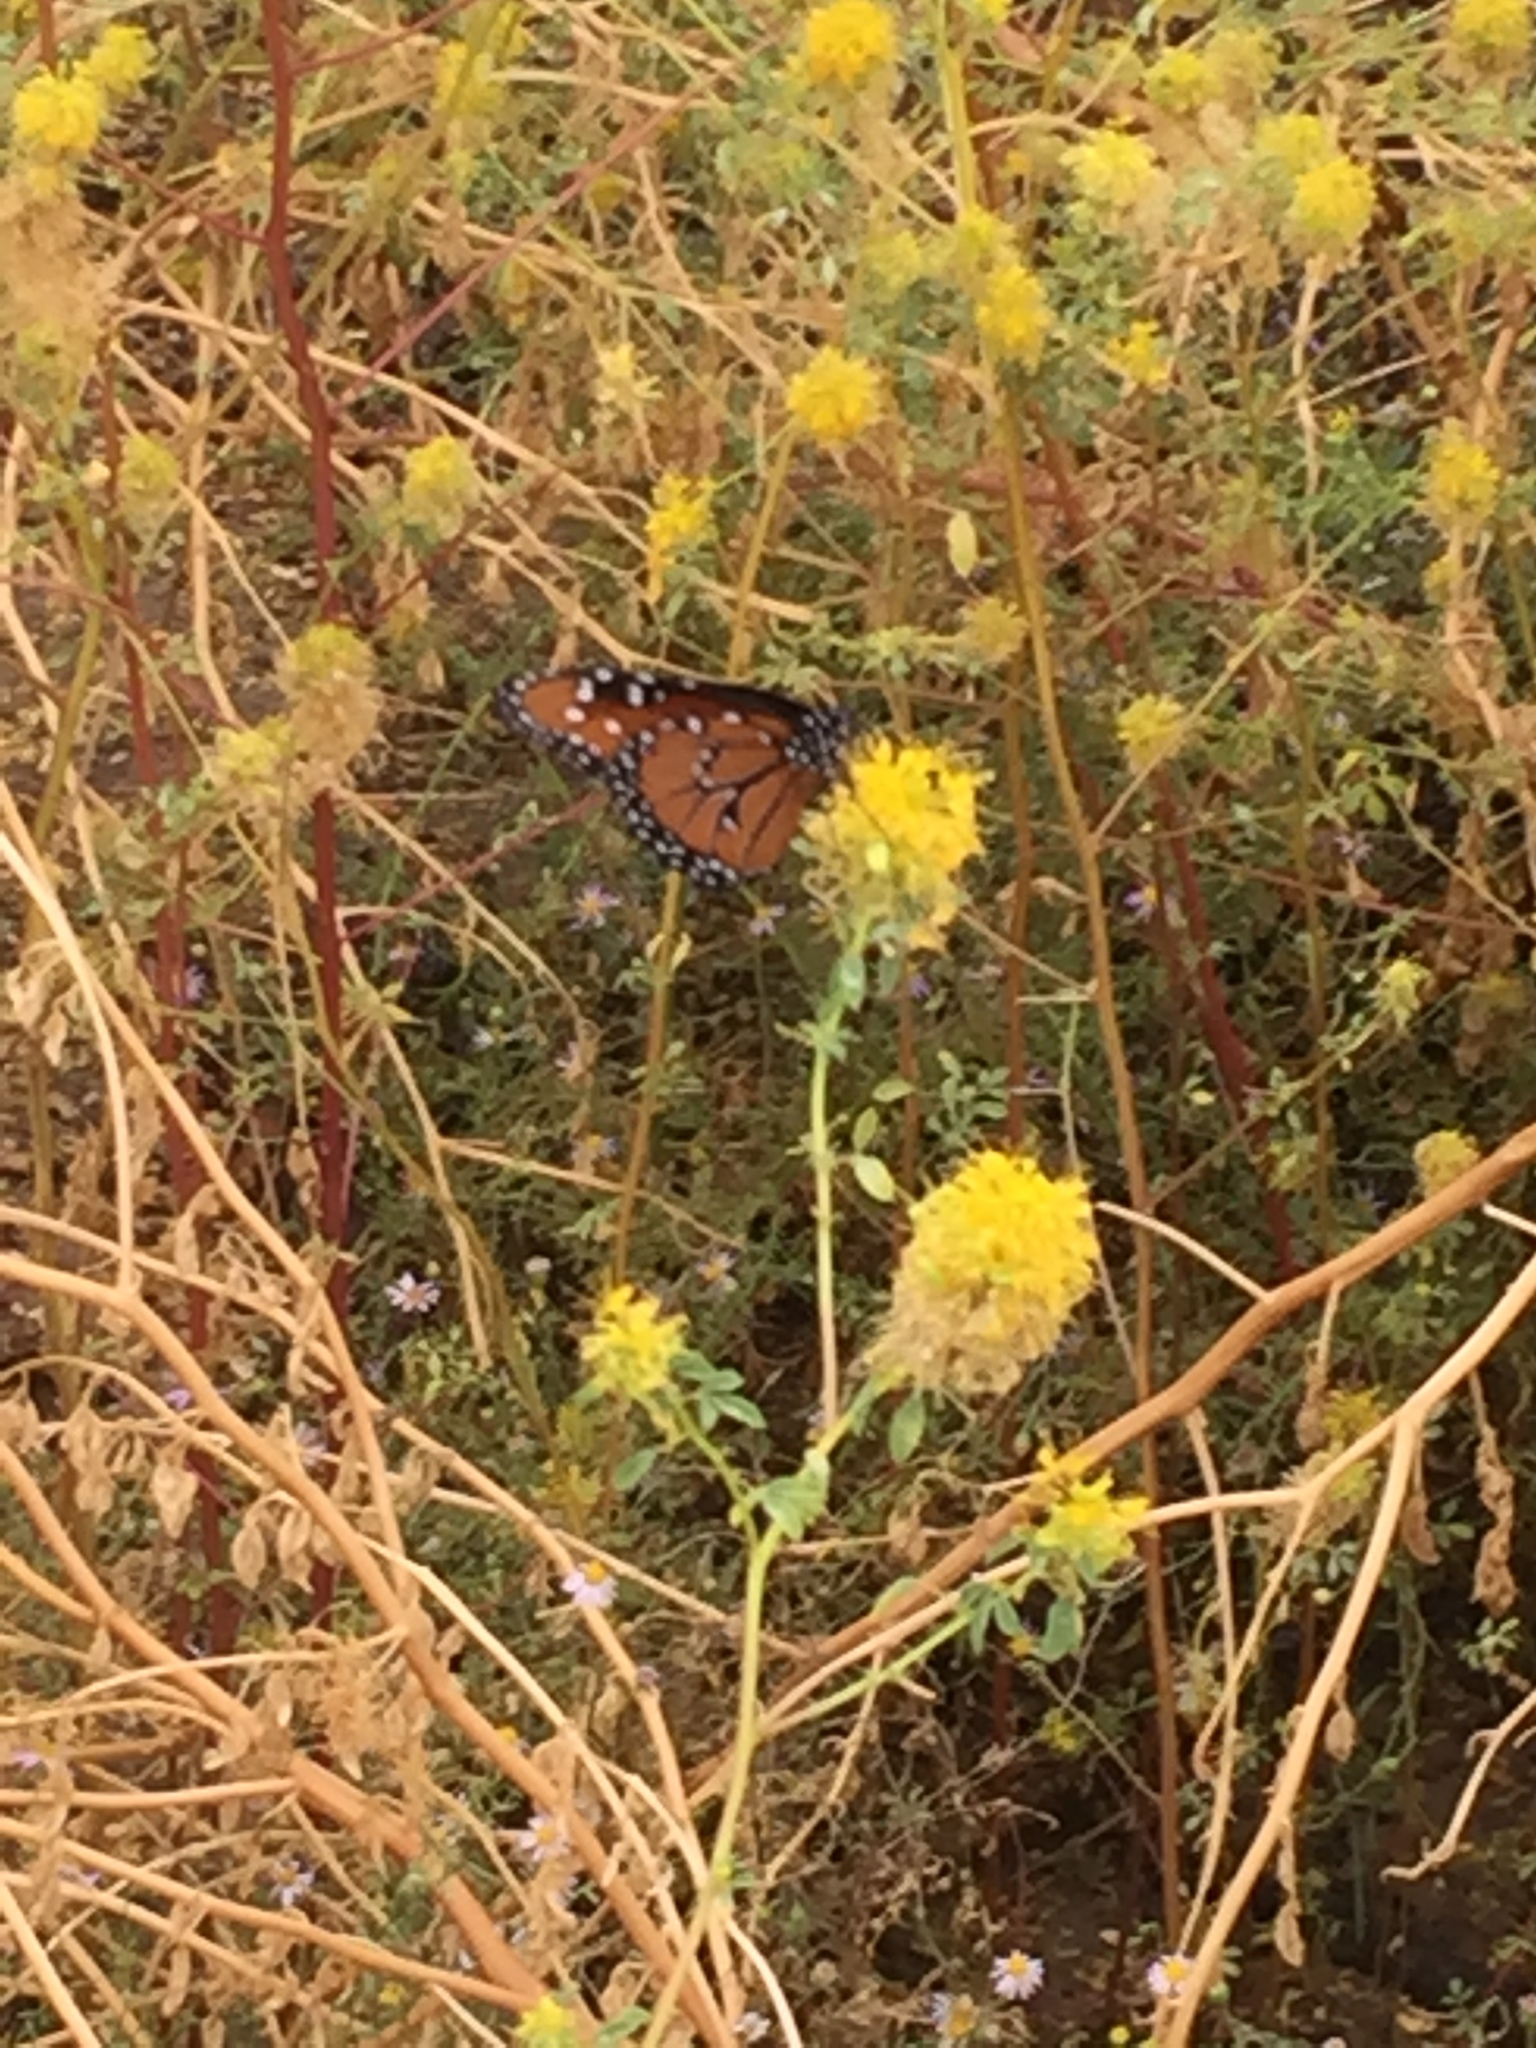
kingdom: Animalia
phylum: Arthropoda
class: Insecta
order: Lepidoptera
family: Nymphalidae
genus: Danaus
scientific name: Danaus gilippus
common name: Queen
